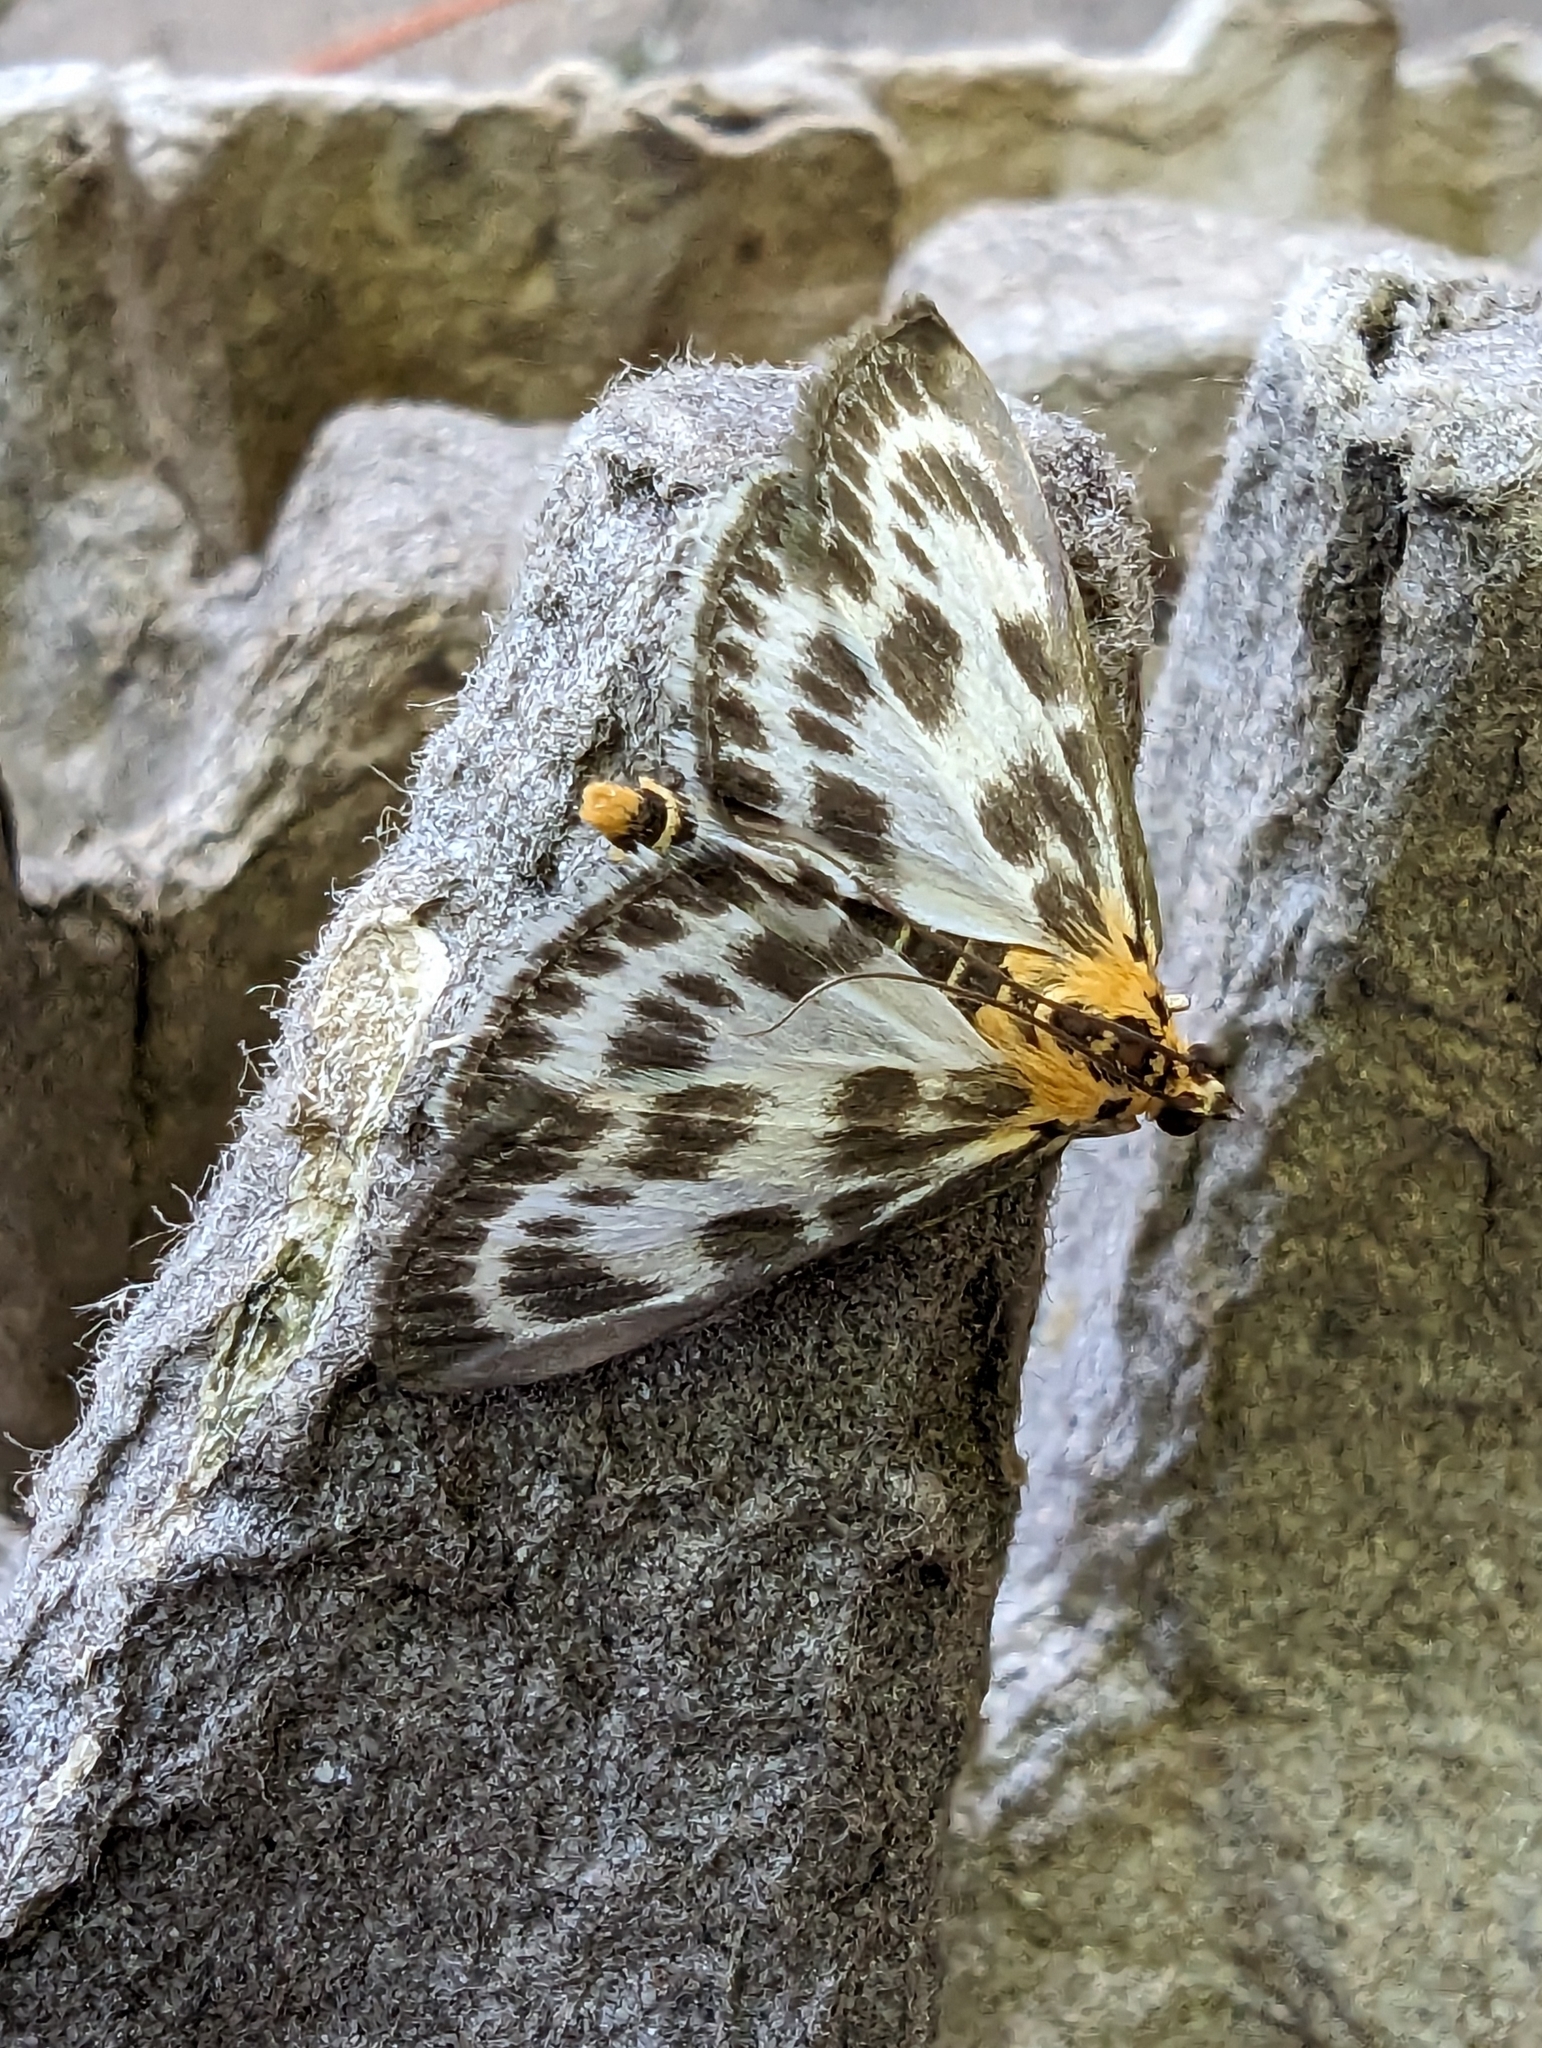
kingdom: Animalia
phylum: Arthropoda
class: Insecta
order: Lepidoptera
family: Crambidae
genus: Anania
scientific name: Anania hortulata
